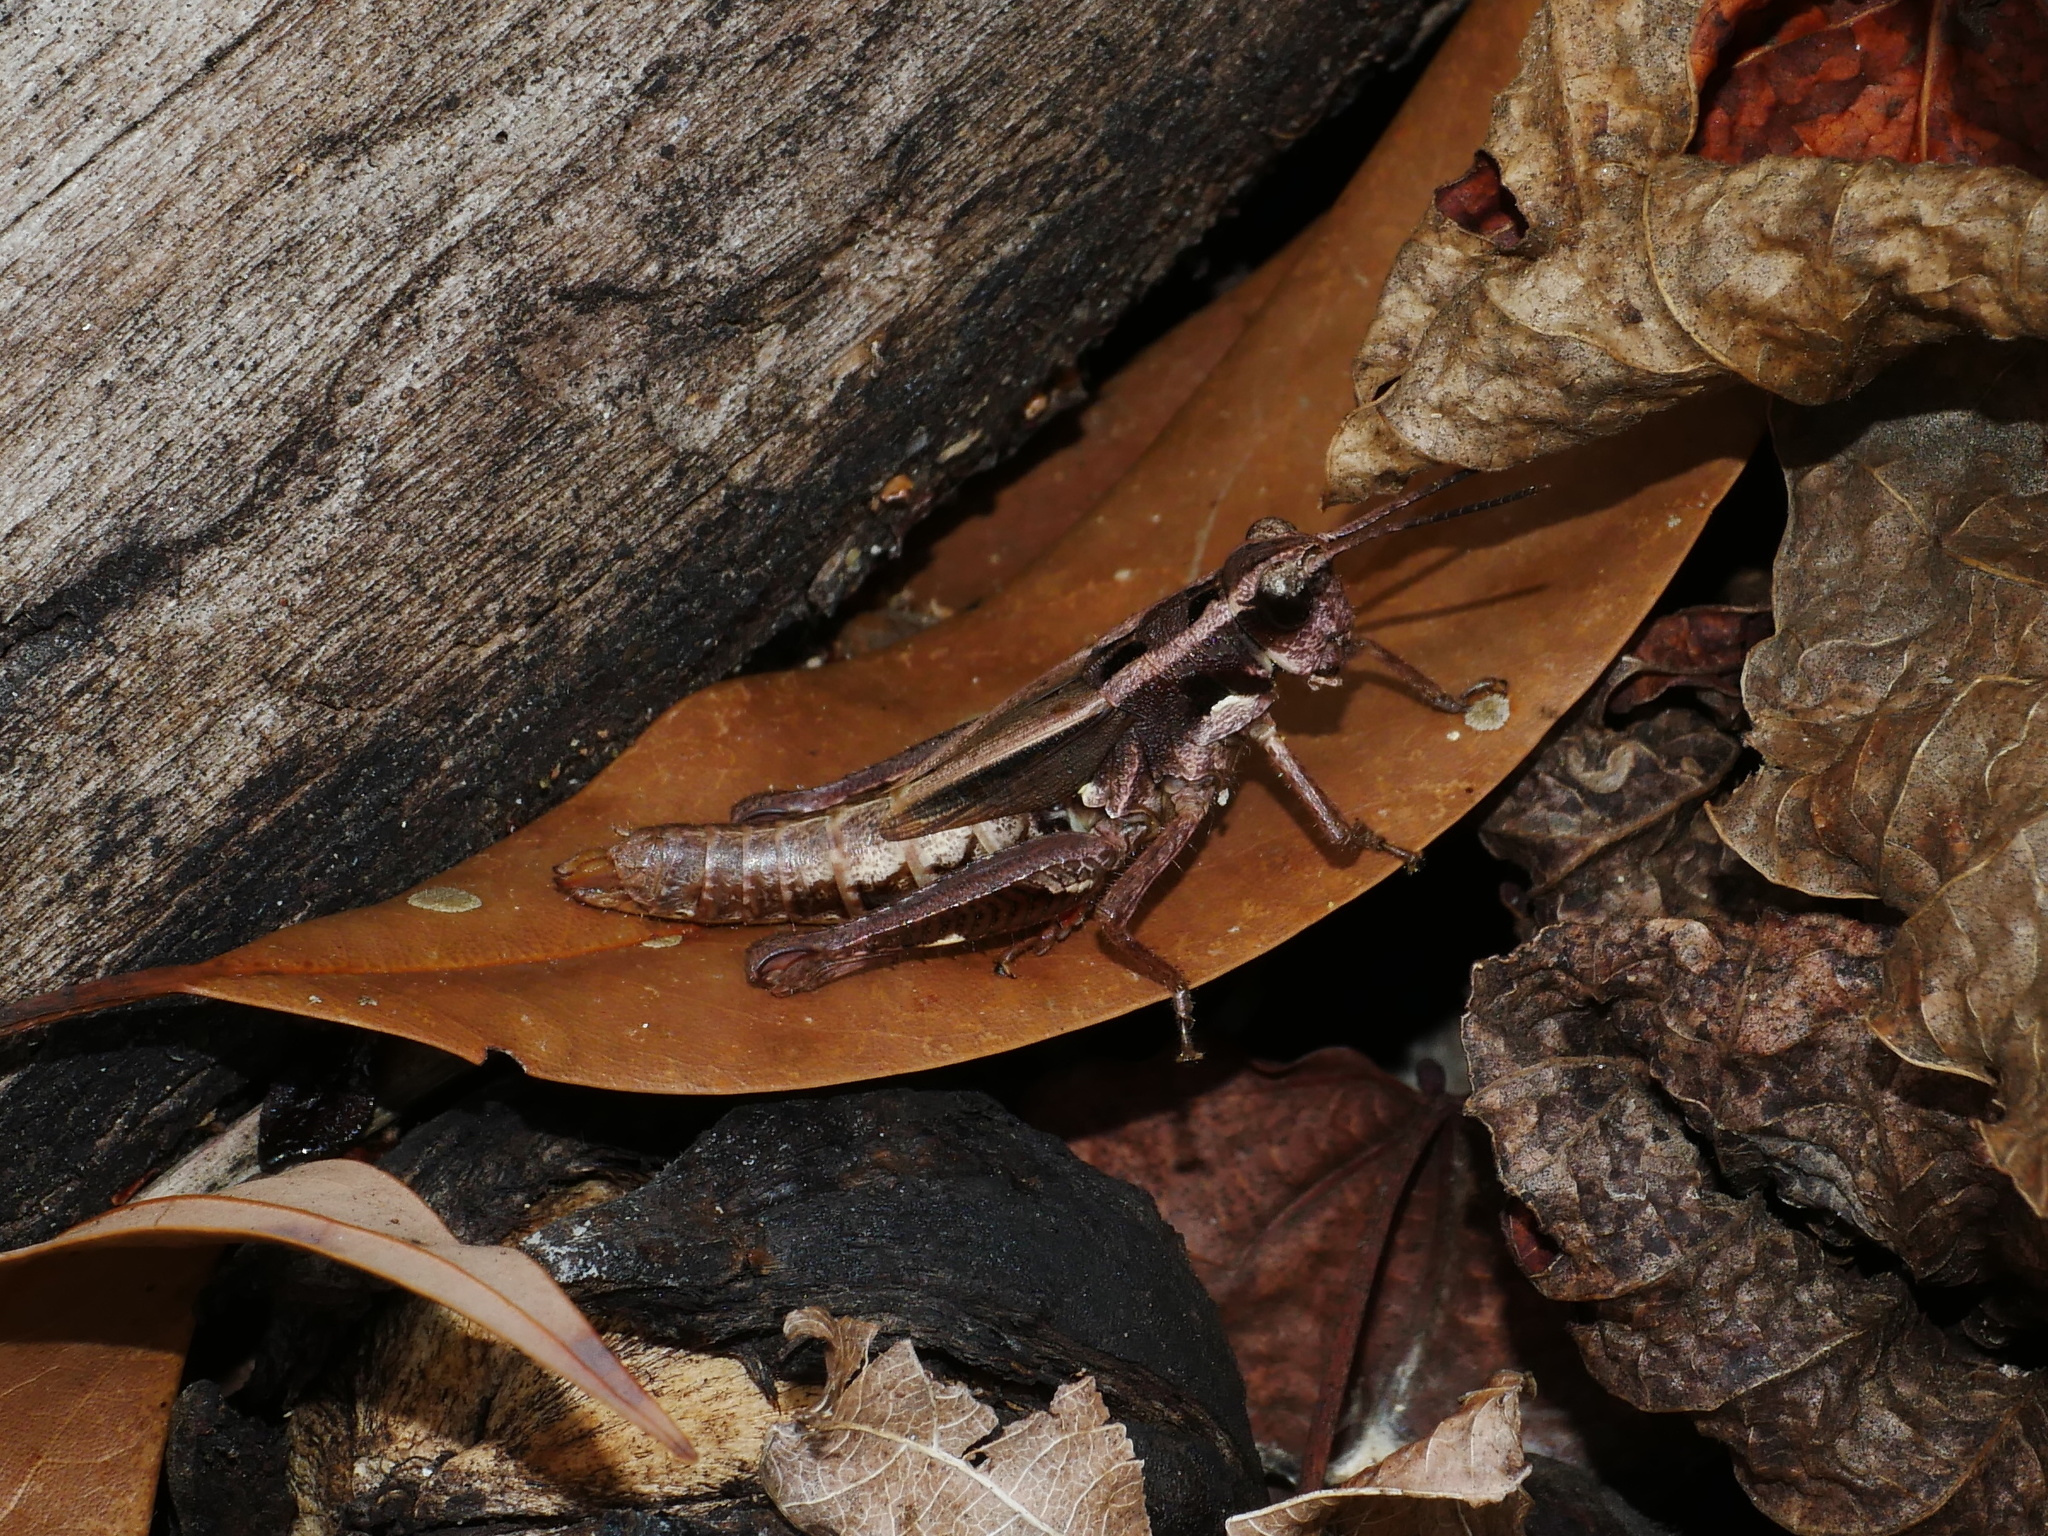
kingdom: Animalia
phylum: Arthropoda
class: Insecta
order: Orthoptera
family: Acrididae
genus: Traulia
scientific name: Traulia ornata
